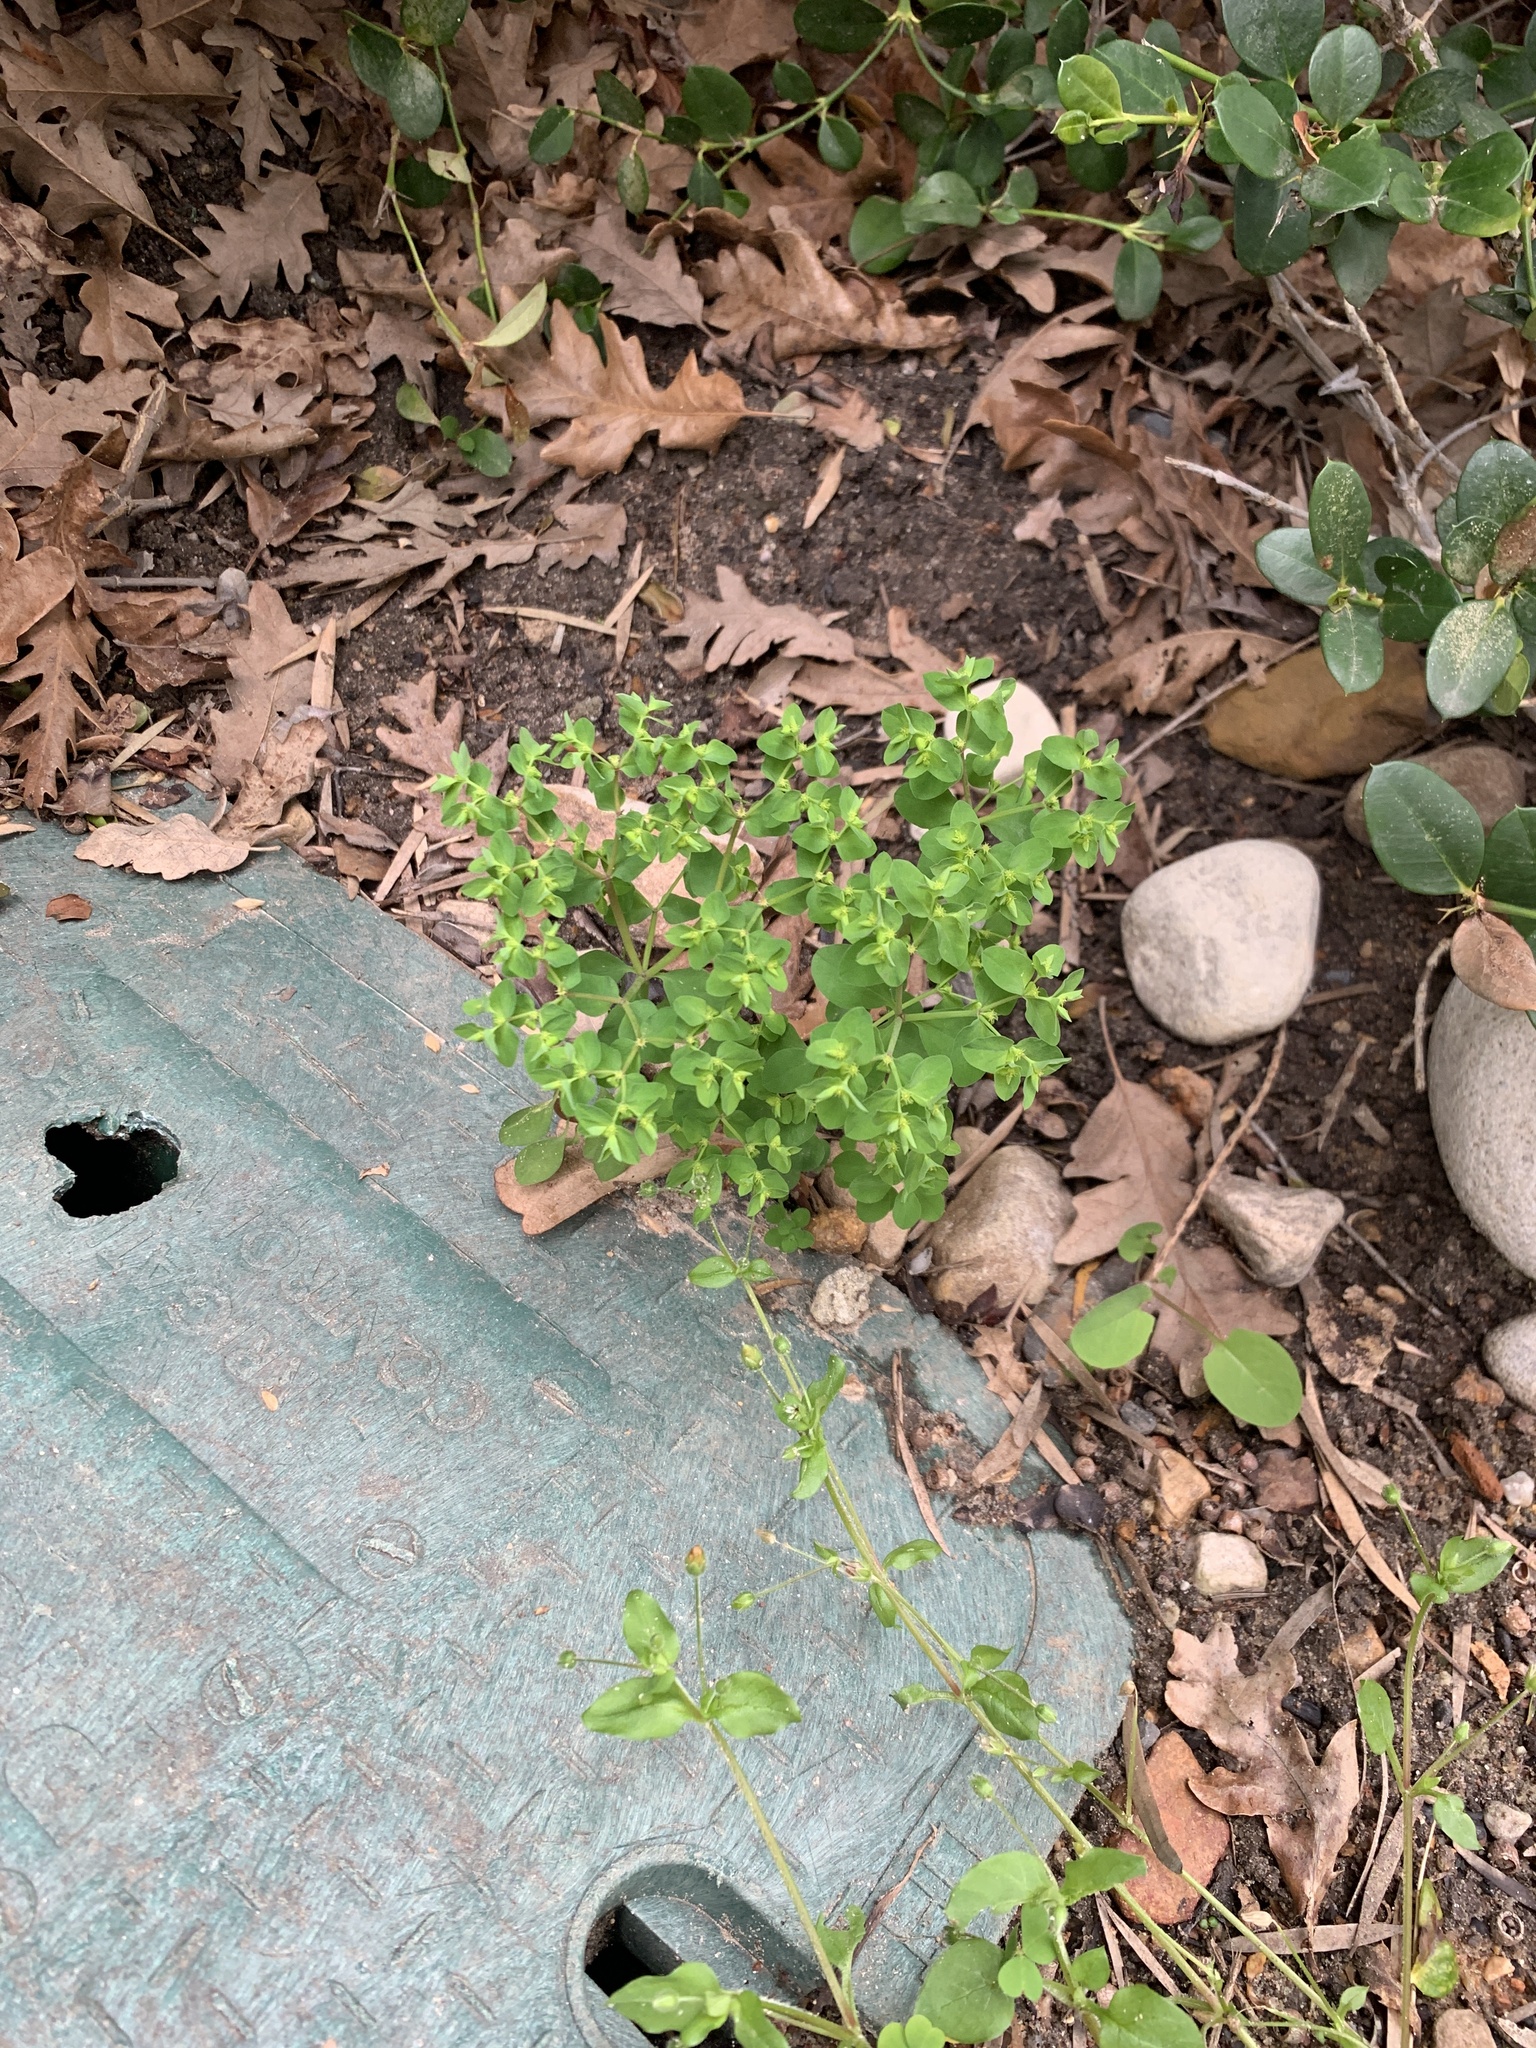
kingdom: Plantae
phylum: Tracheophyta
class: Magnoliopsida
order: Malpighiales
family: Euphorbiaceae
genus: Euphorbia
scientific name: Euphorbia peplus
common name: Petty spurge
